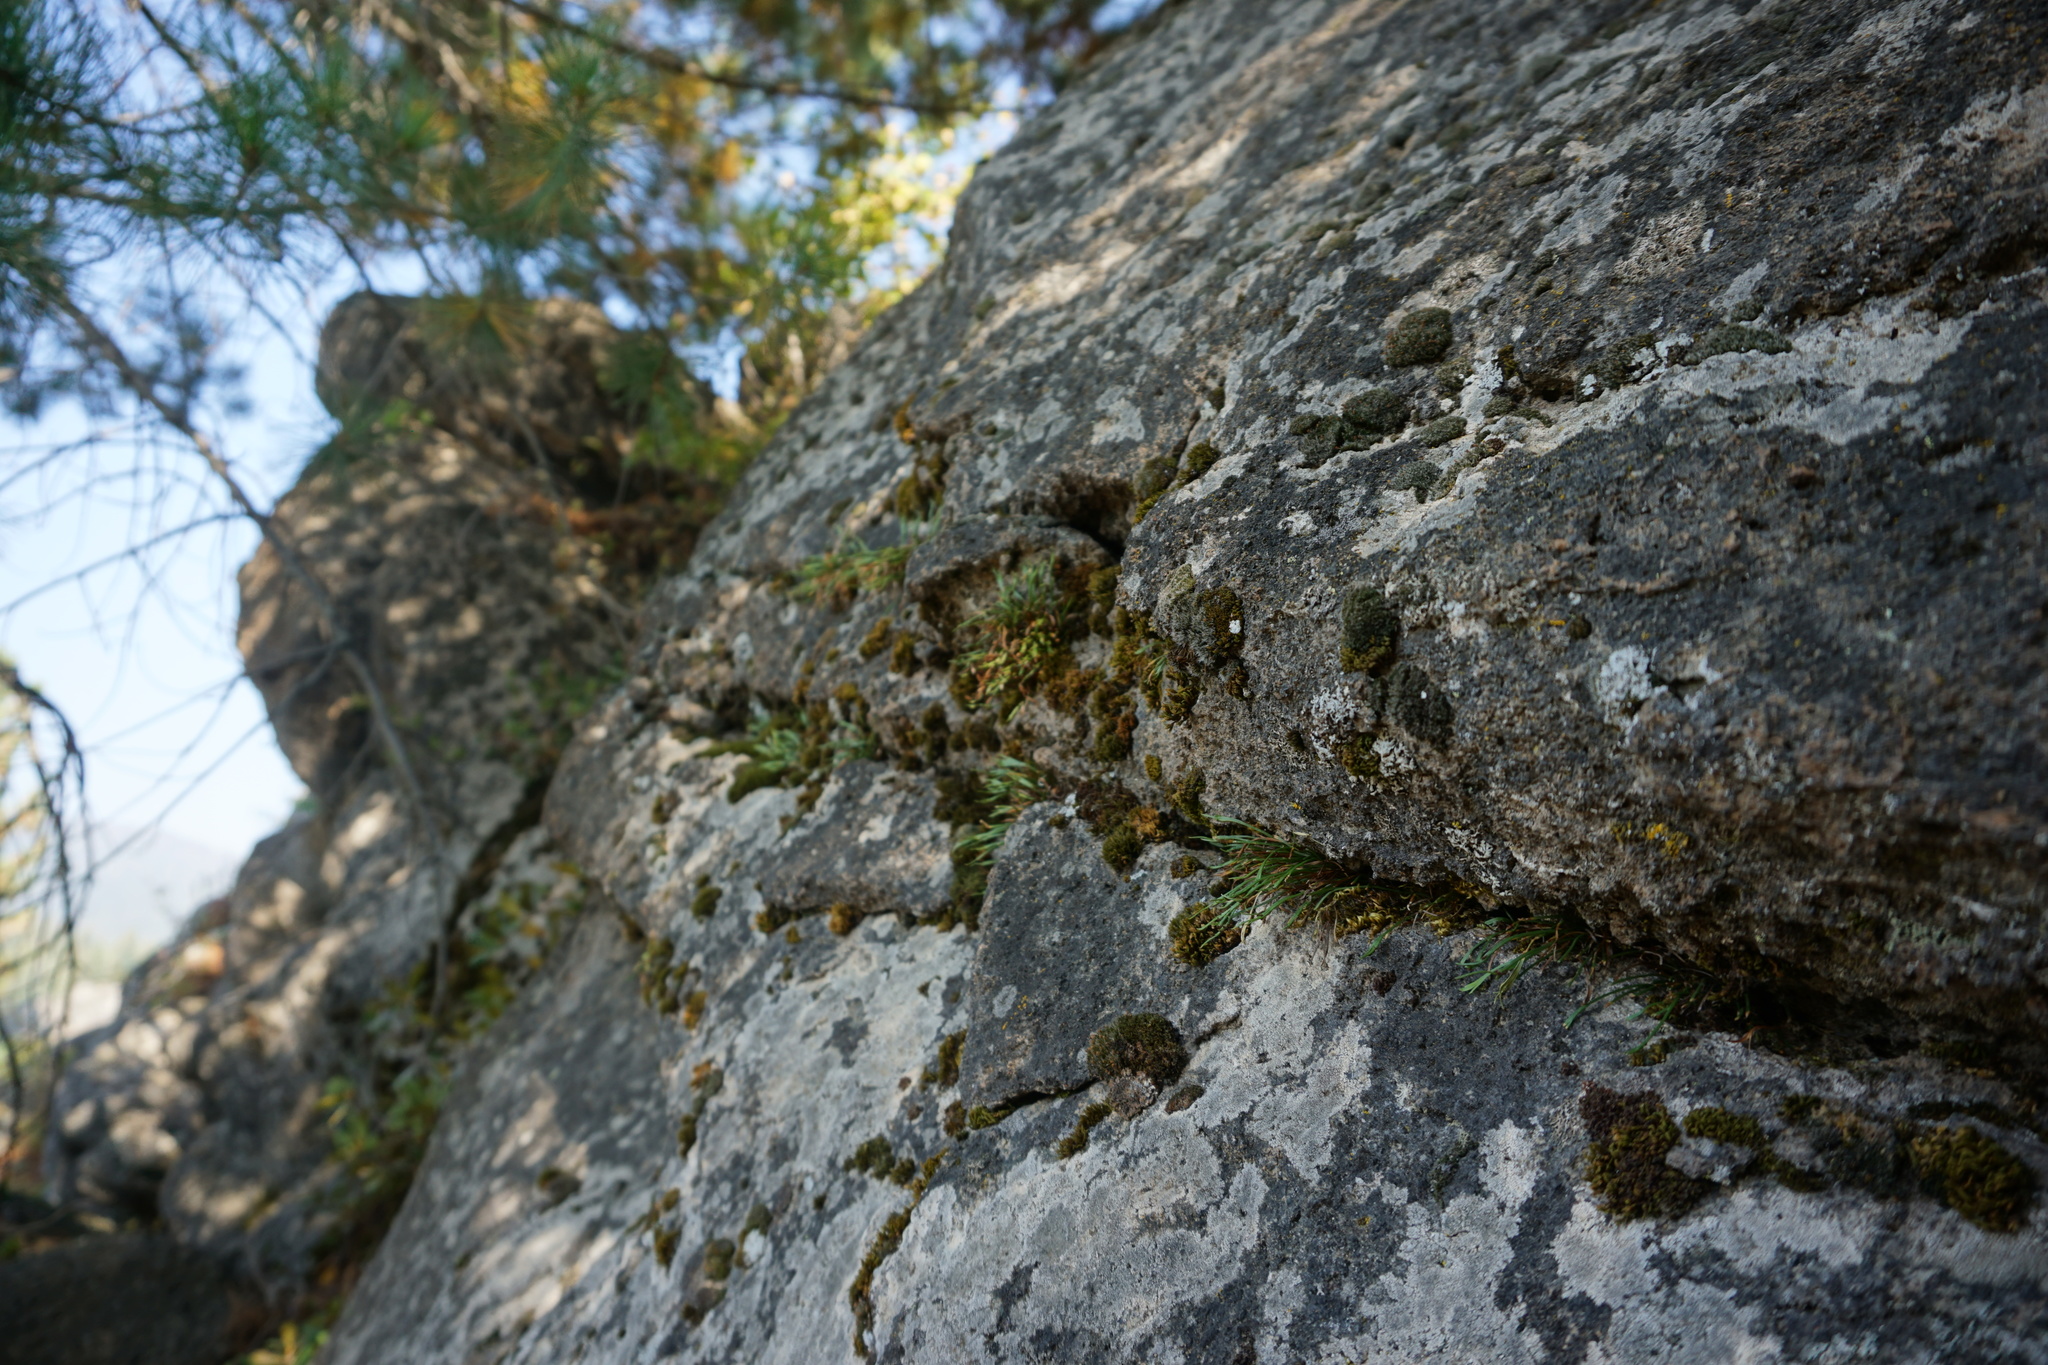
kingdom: Plantae
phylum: Tracheophyta
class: Polypodiopsida
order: Polypodiales
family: Aspleniaceae
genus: Asplenium
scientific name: Asplenium septentrionale
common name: Forked spleenwort
